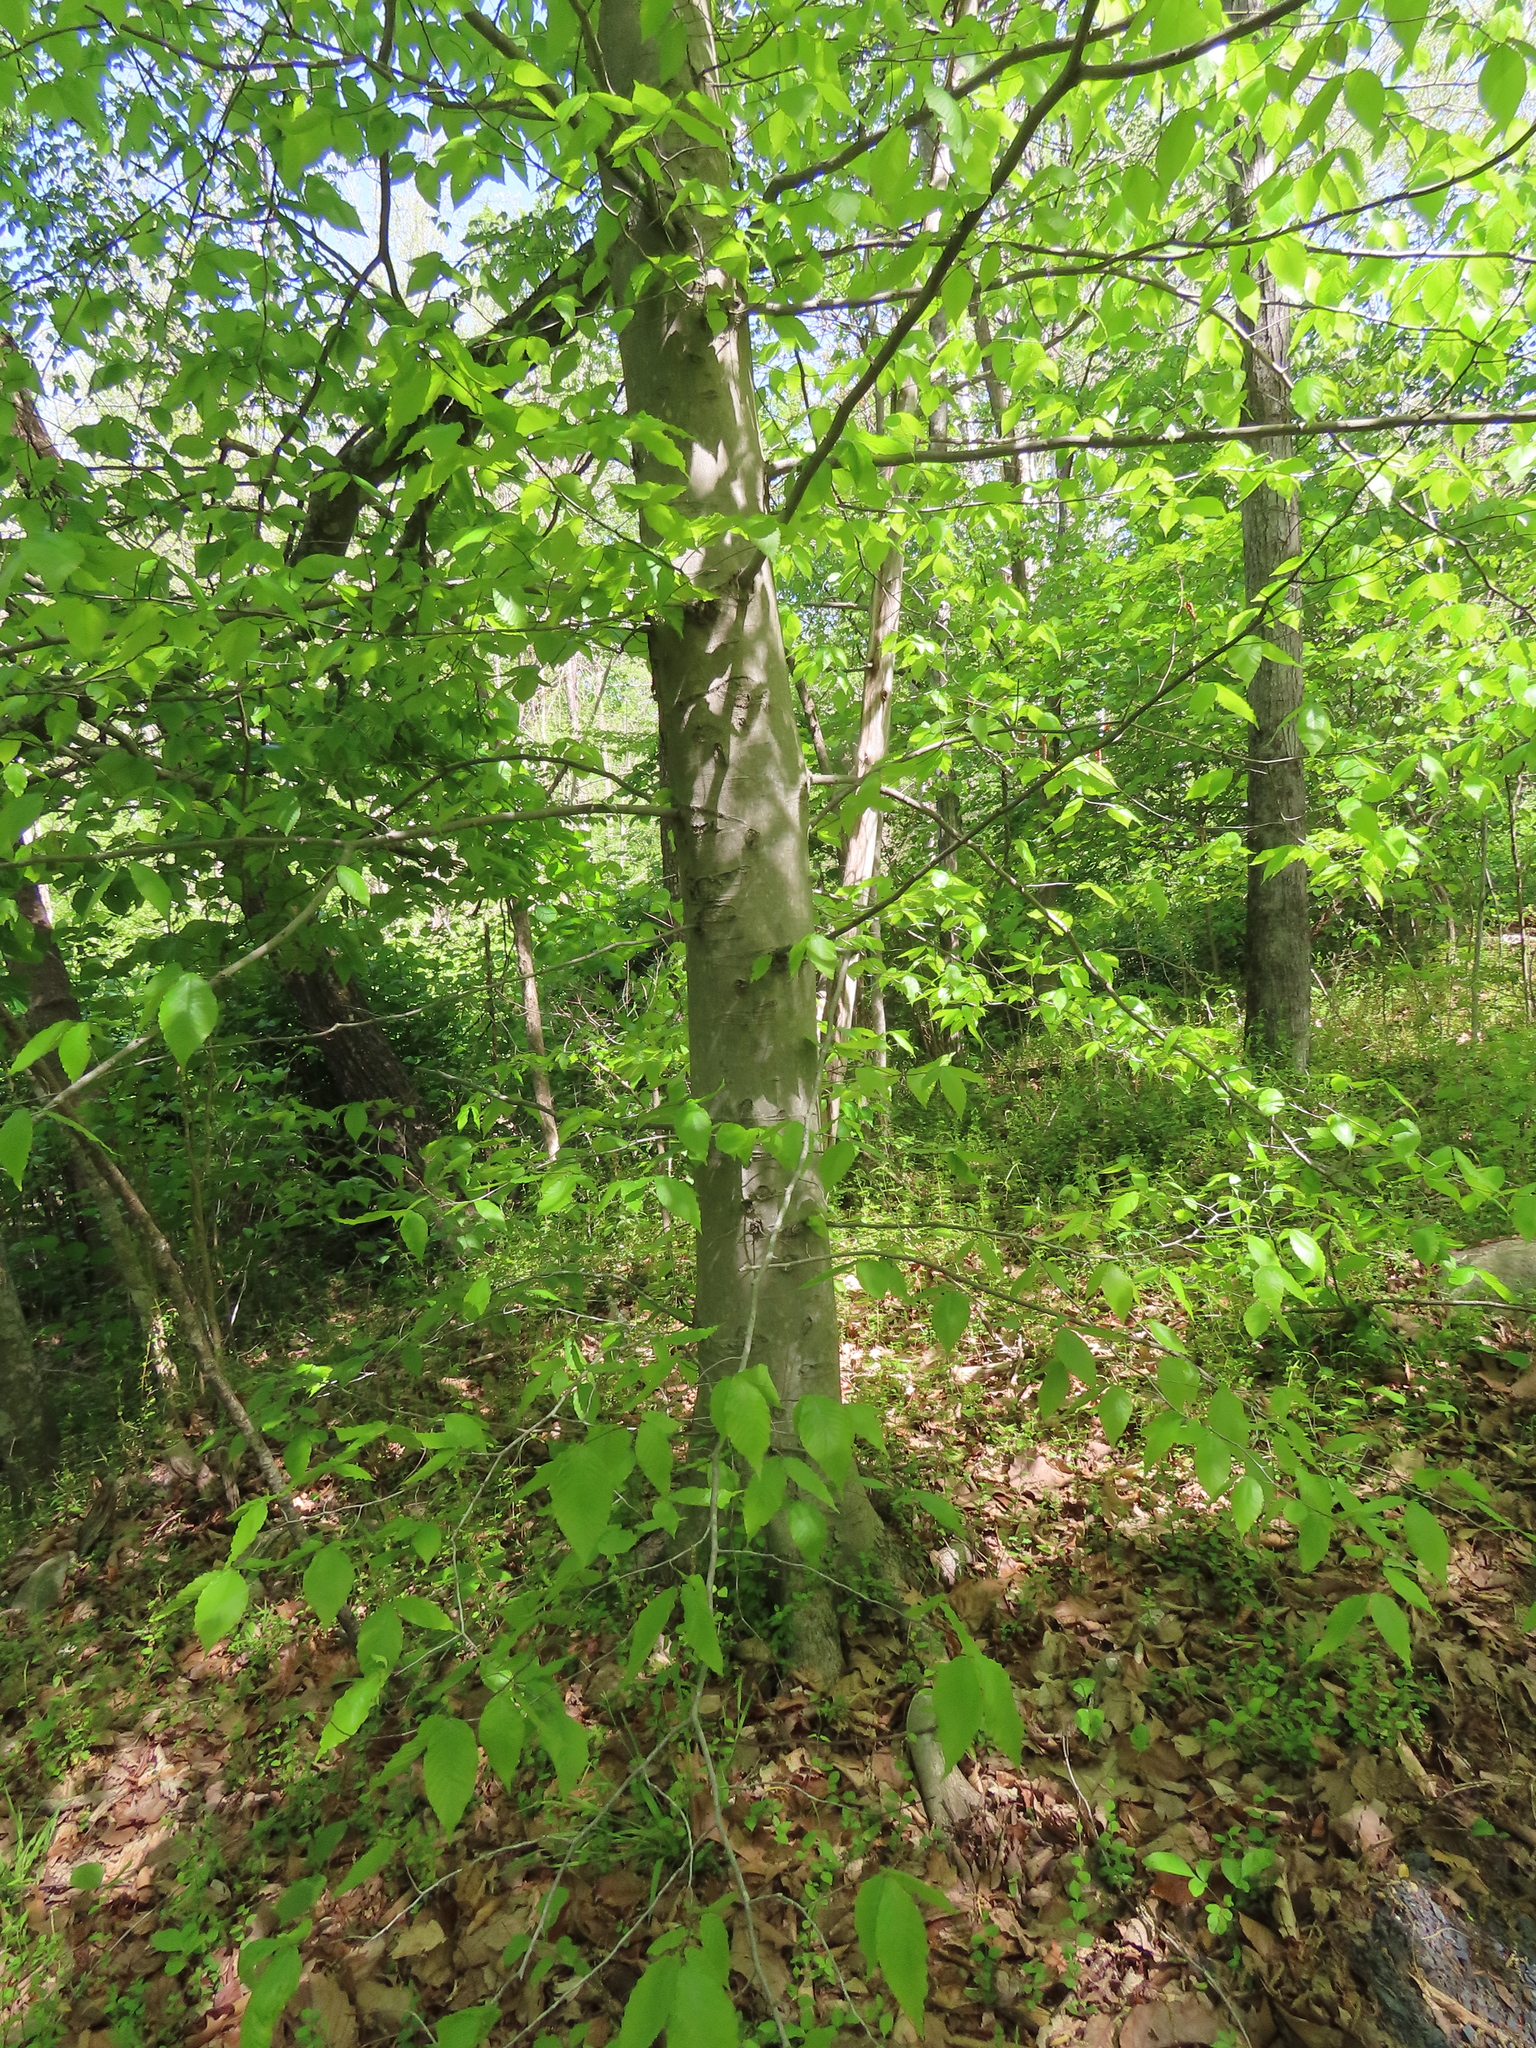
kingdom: Plantae
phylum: Tracheophyta
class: Magnoliopsida
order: Fagales
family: Fagaceae
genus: Fagus
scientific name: Fagus grandifolia
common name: American beech
